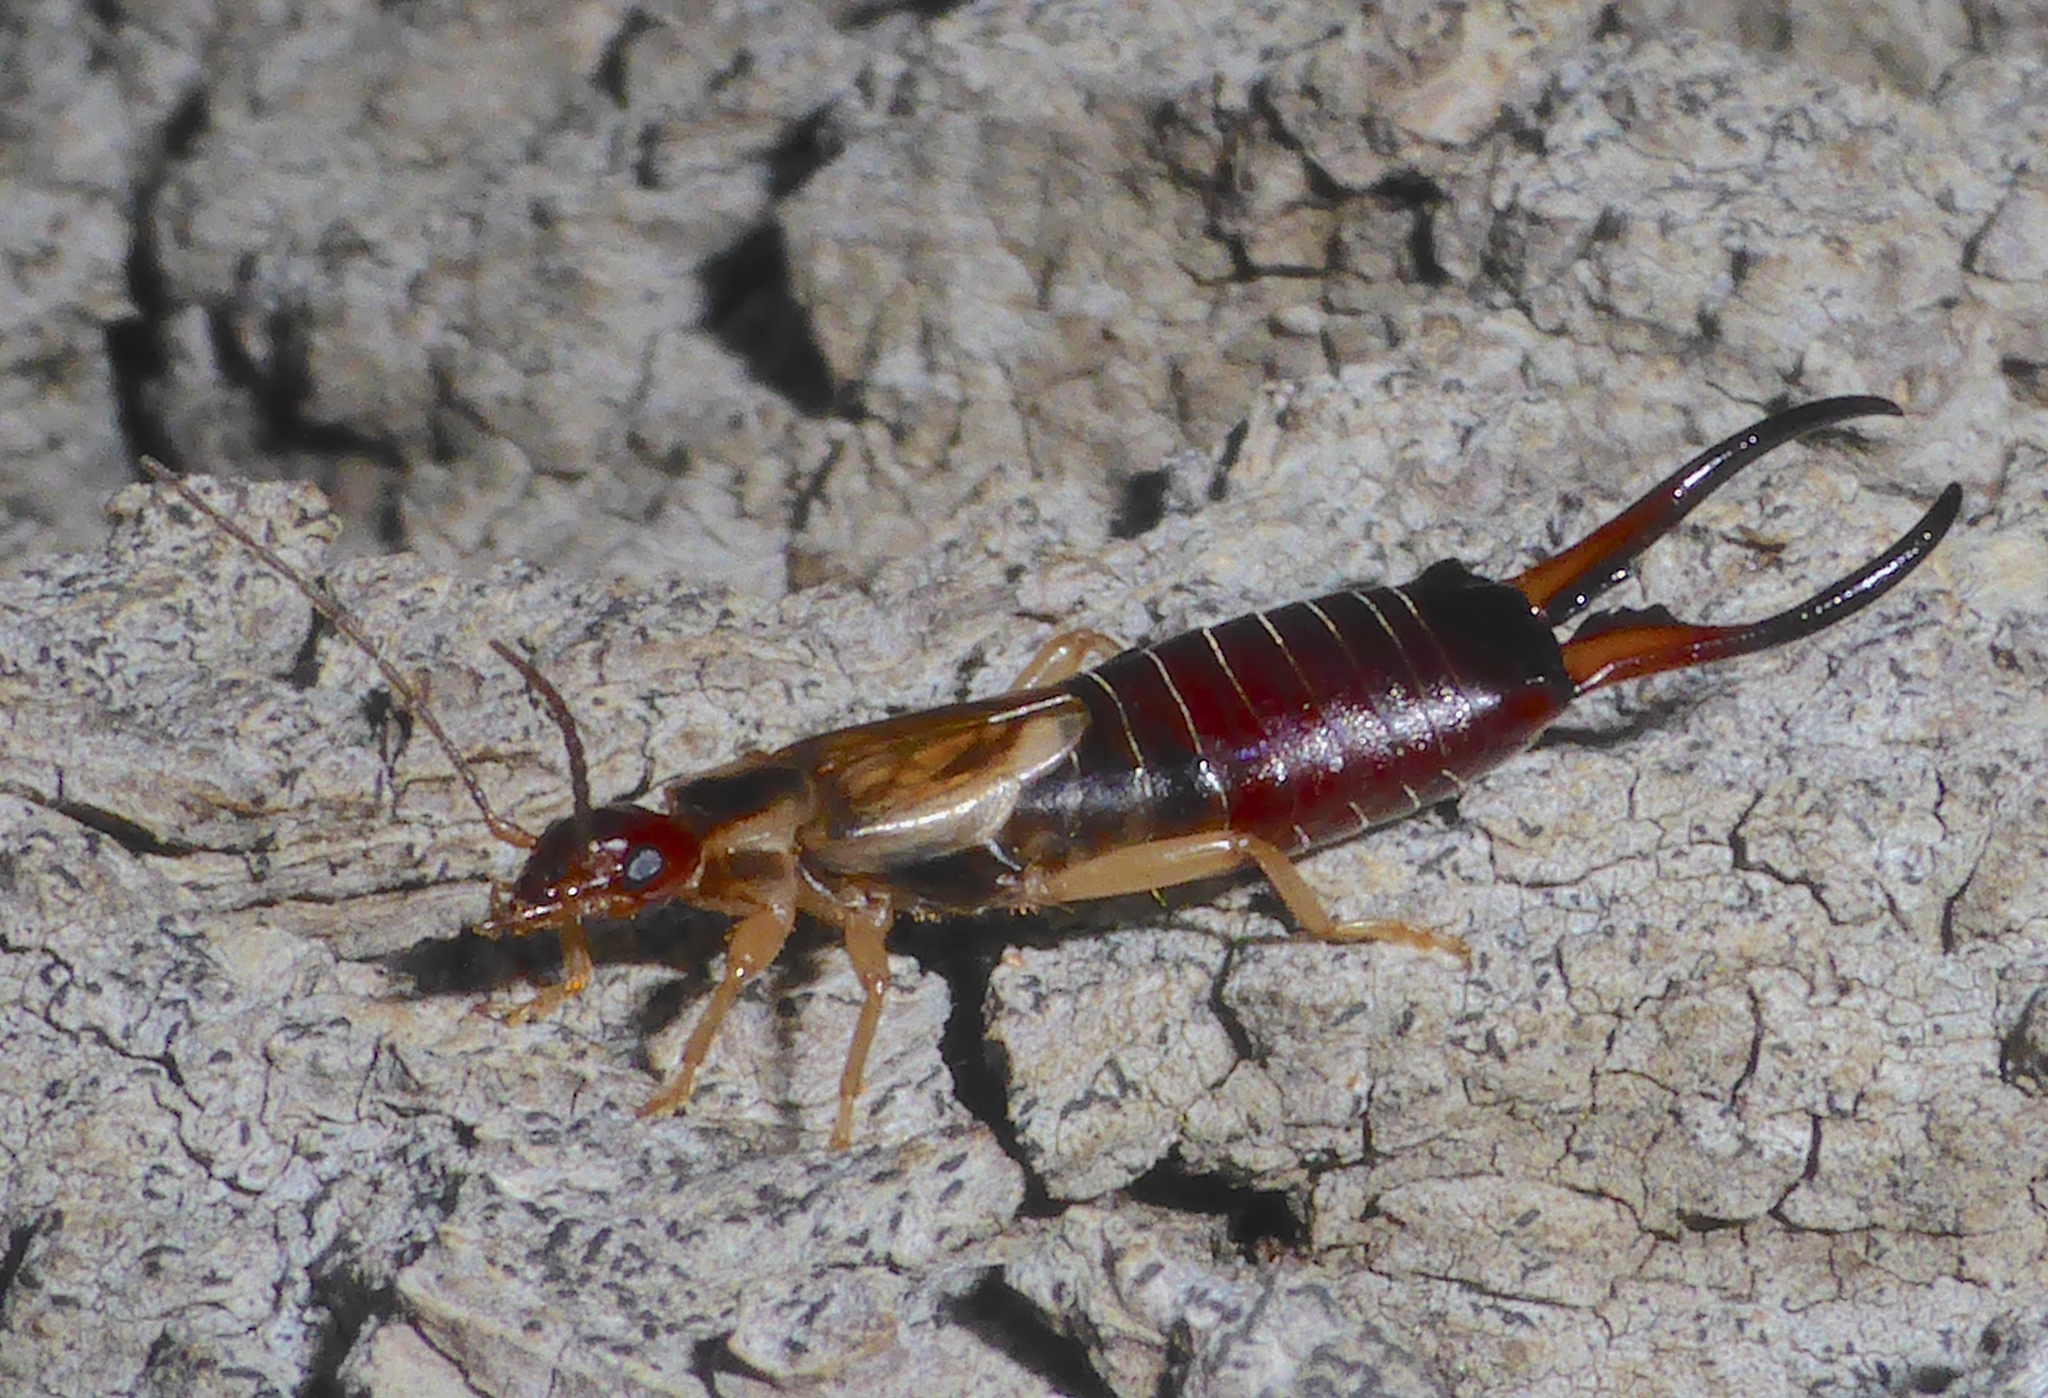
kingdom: Animalia
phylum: Arthropoda
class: Insecta
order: Dermaptera
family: Forficulidae
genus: Forficula
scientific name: Forficula
